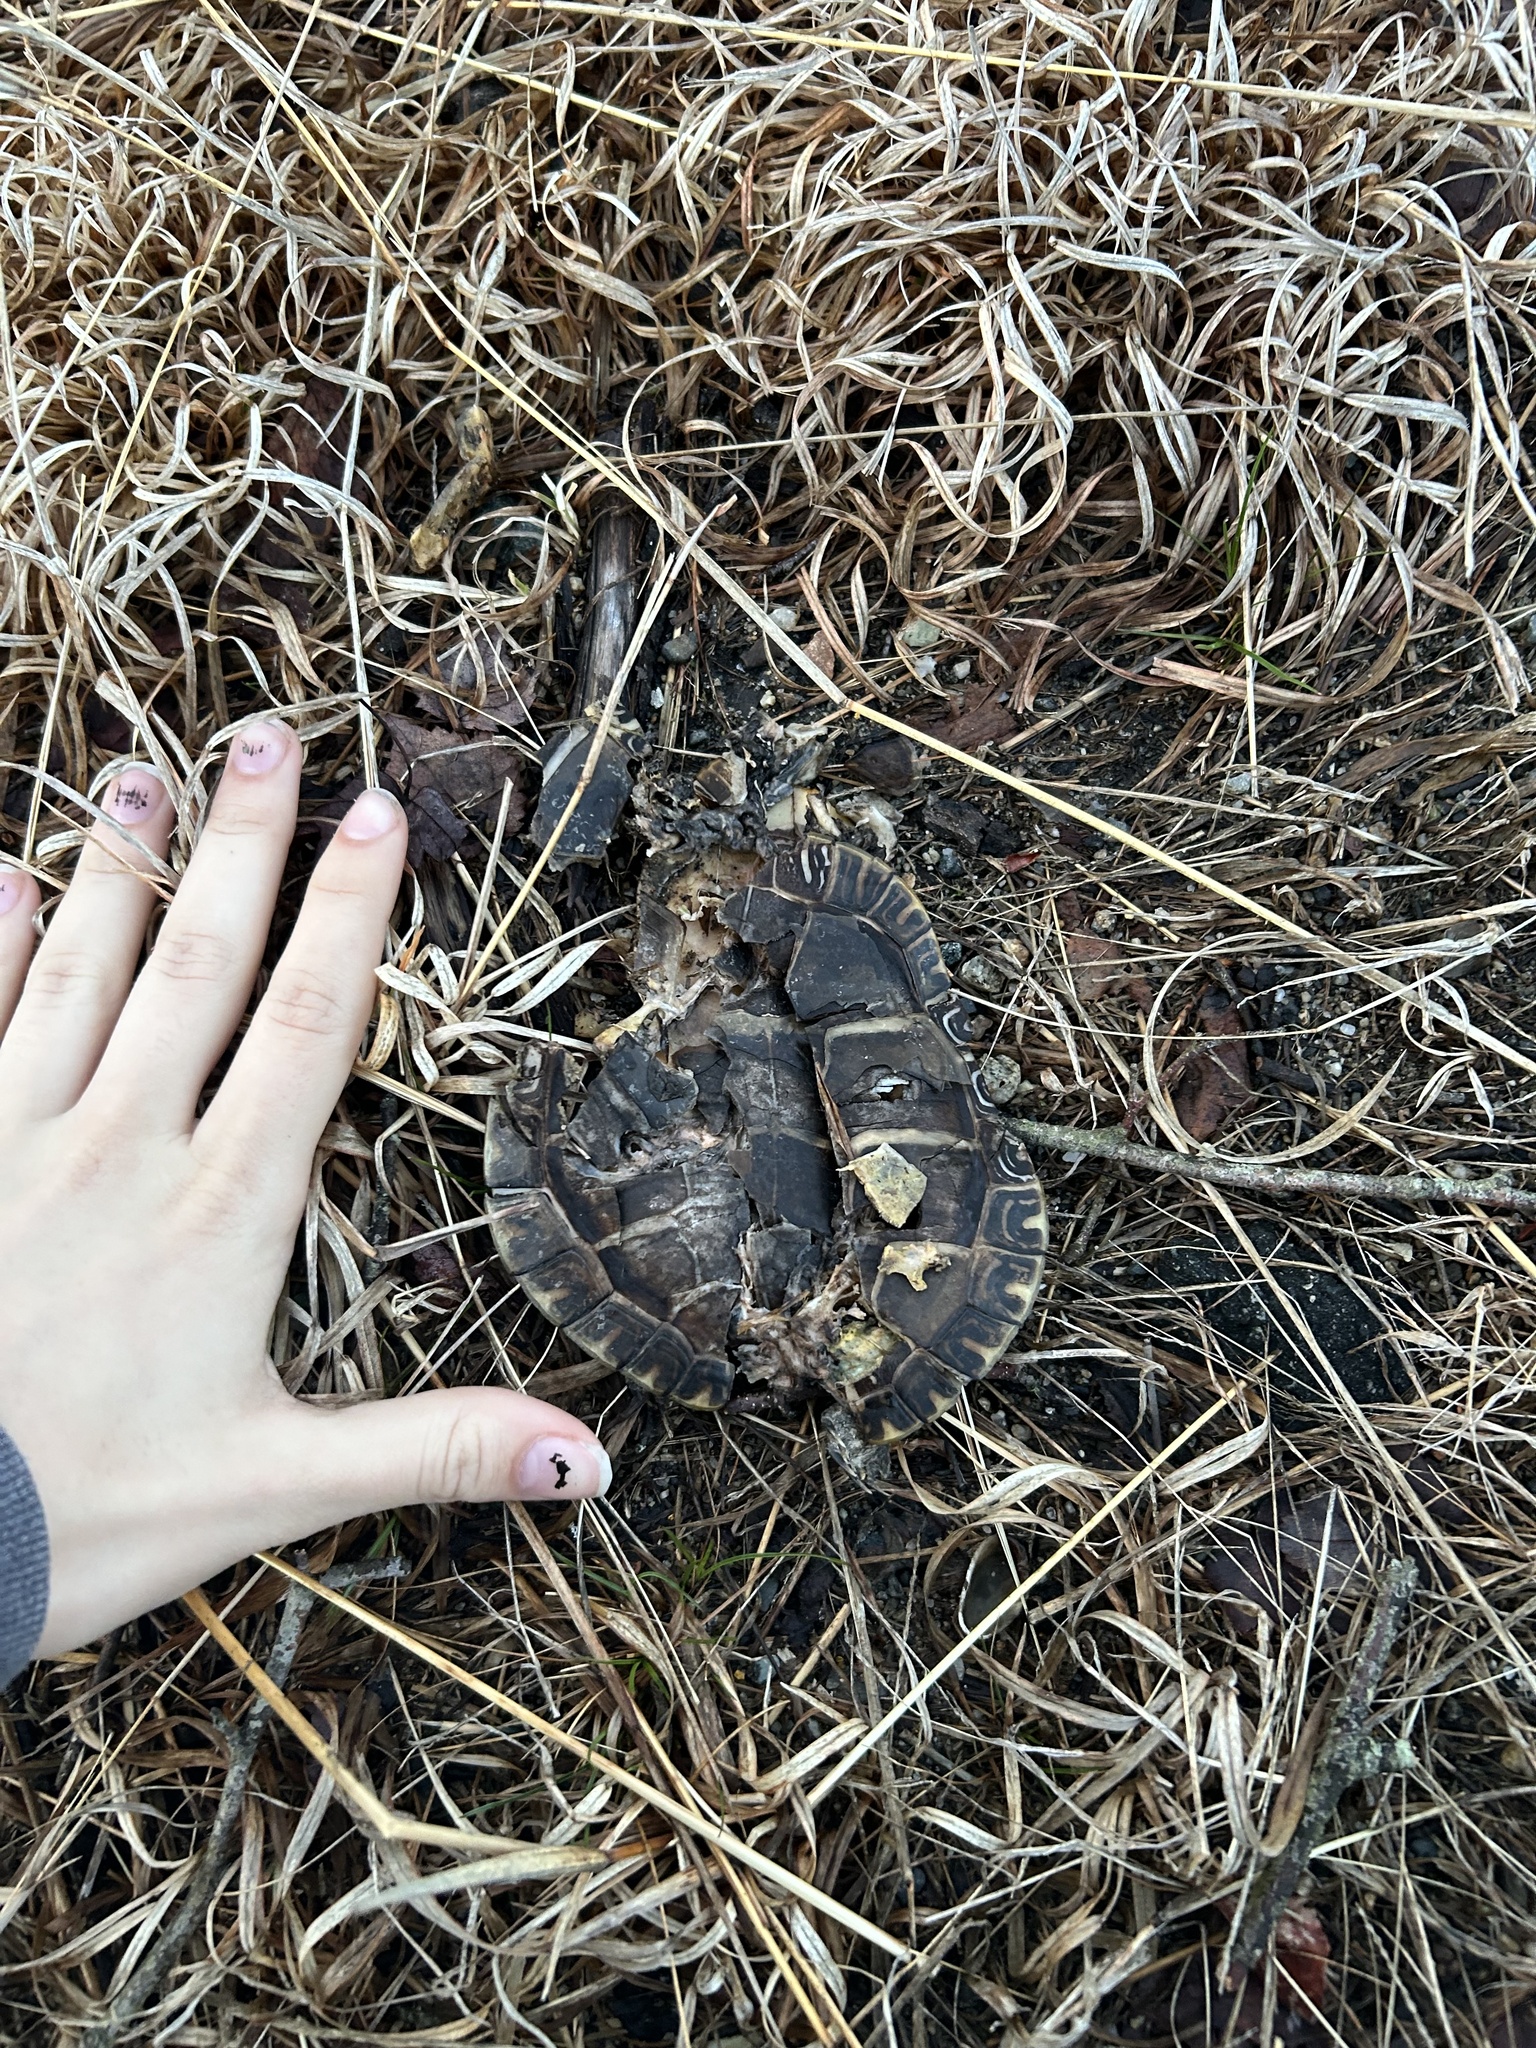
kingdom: Animalia
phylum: Chordata
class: Testudines
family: Emydidae
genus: Chrysemys
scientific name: Chrysemys picta
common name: Painted turtle
